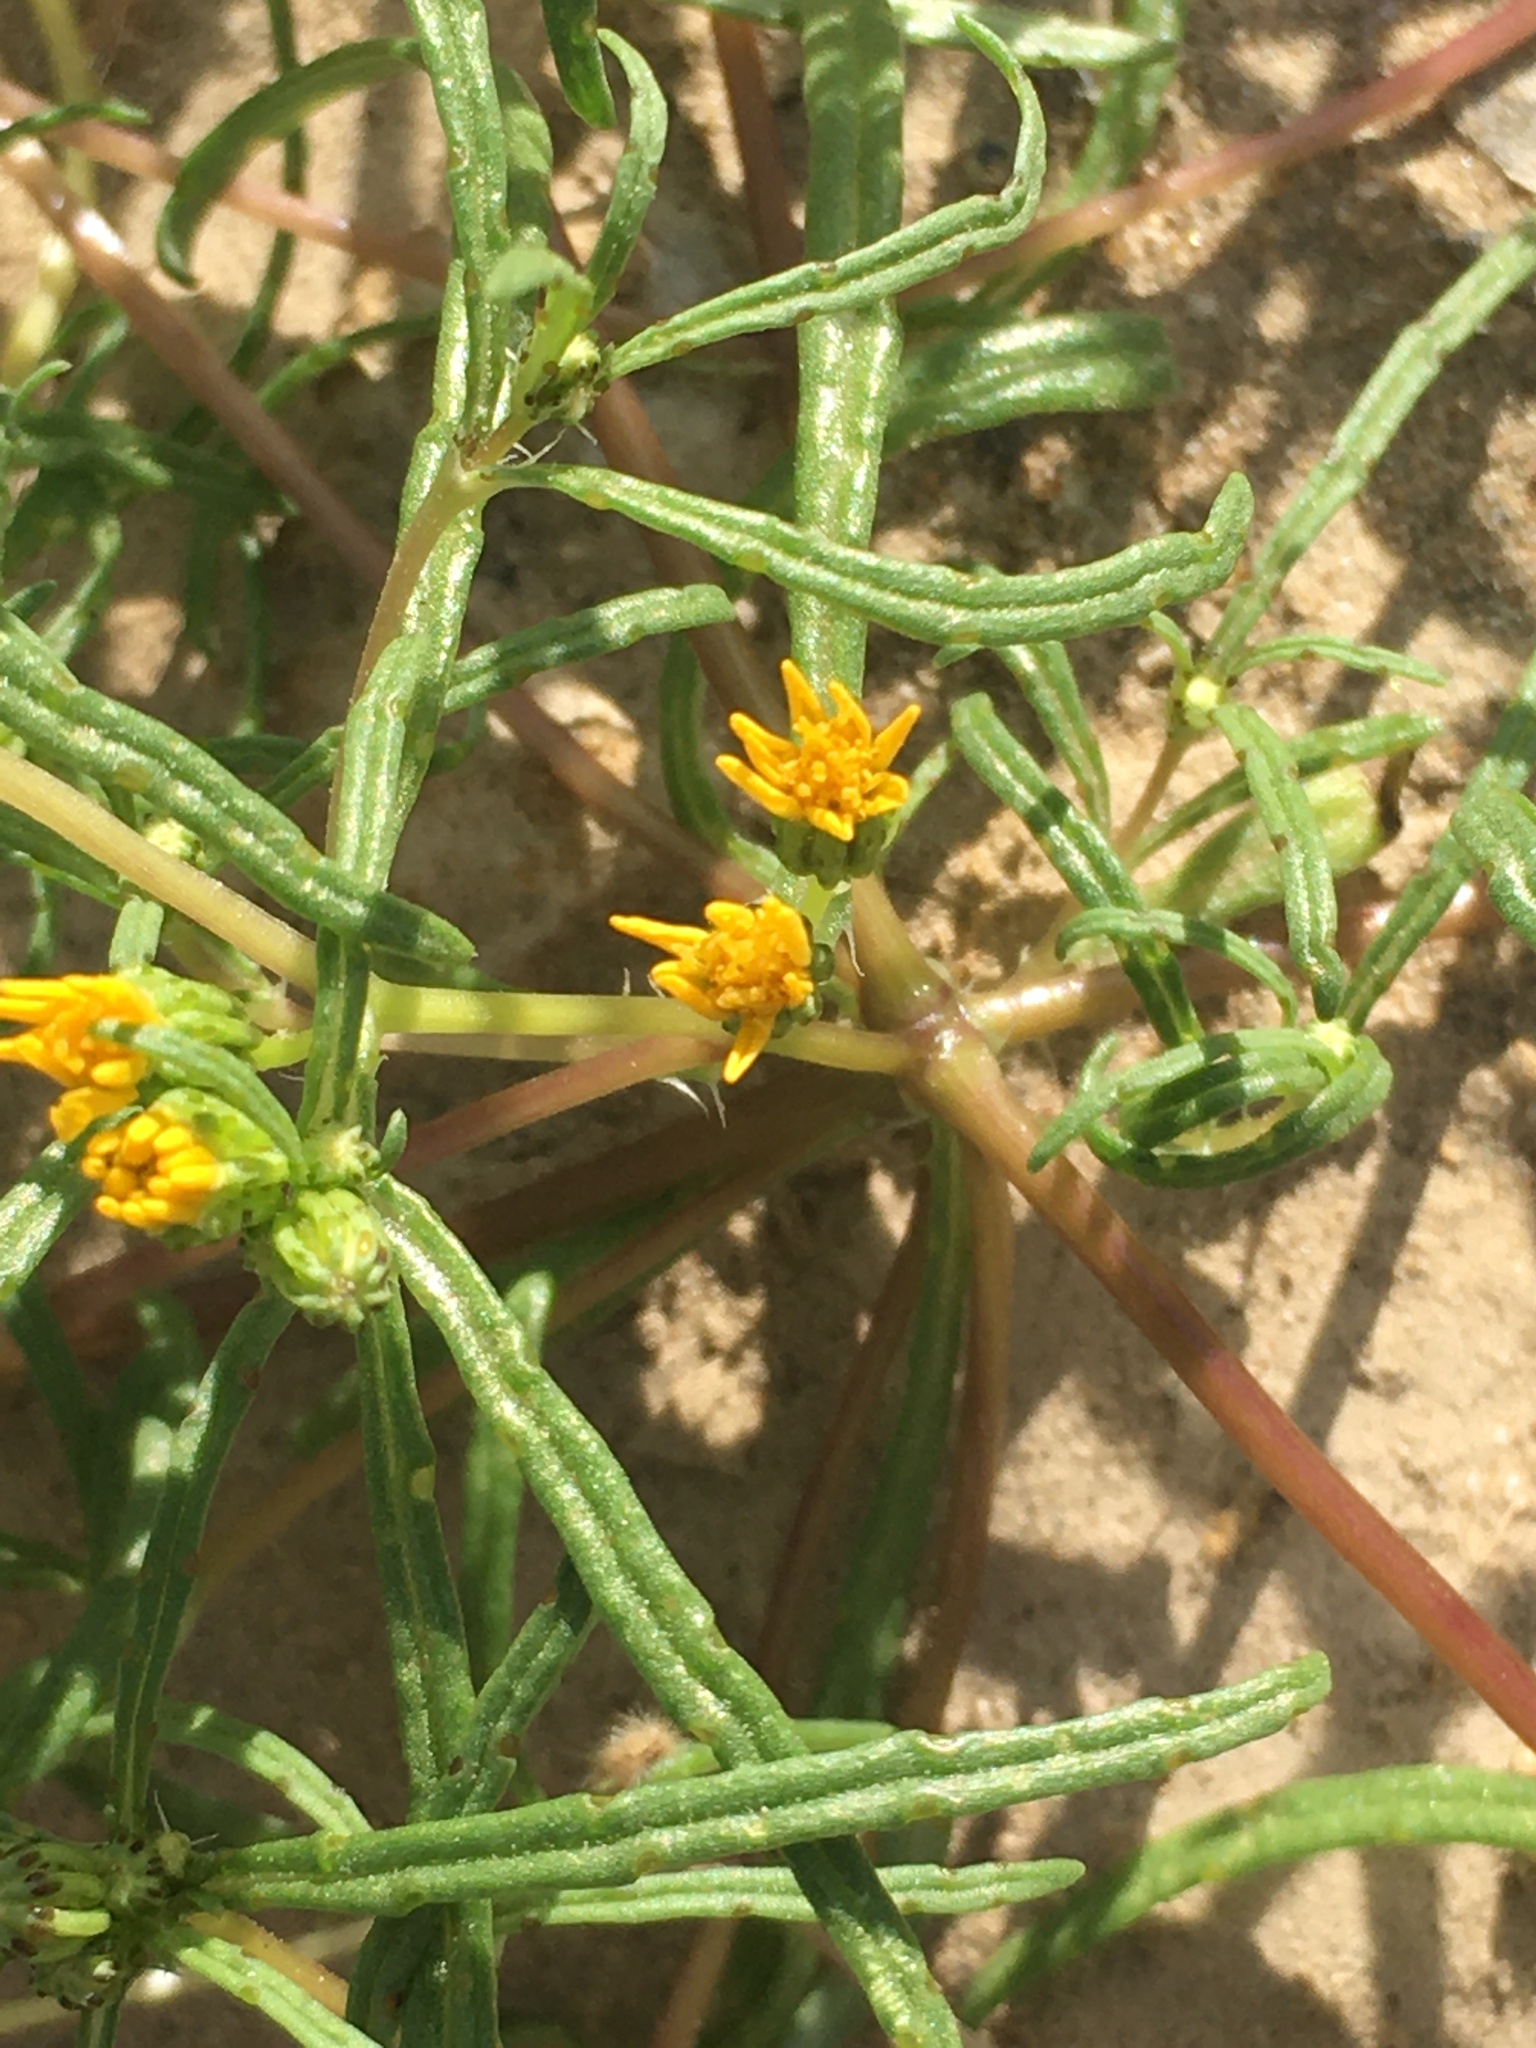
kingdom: Plantae
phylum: Tracheophyta
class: Magnoliopsida
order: Asterales
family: Asteraceae
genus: Pectis
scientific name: Pectis papposa
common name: Many-bristle chinchweed
